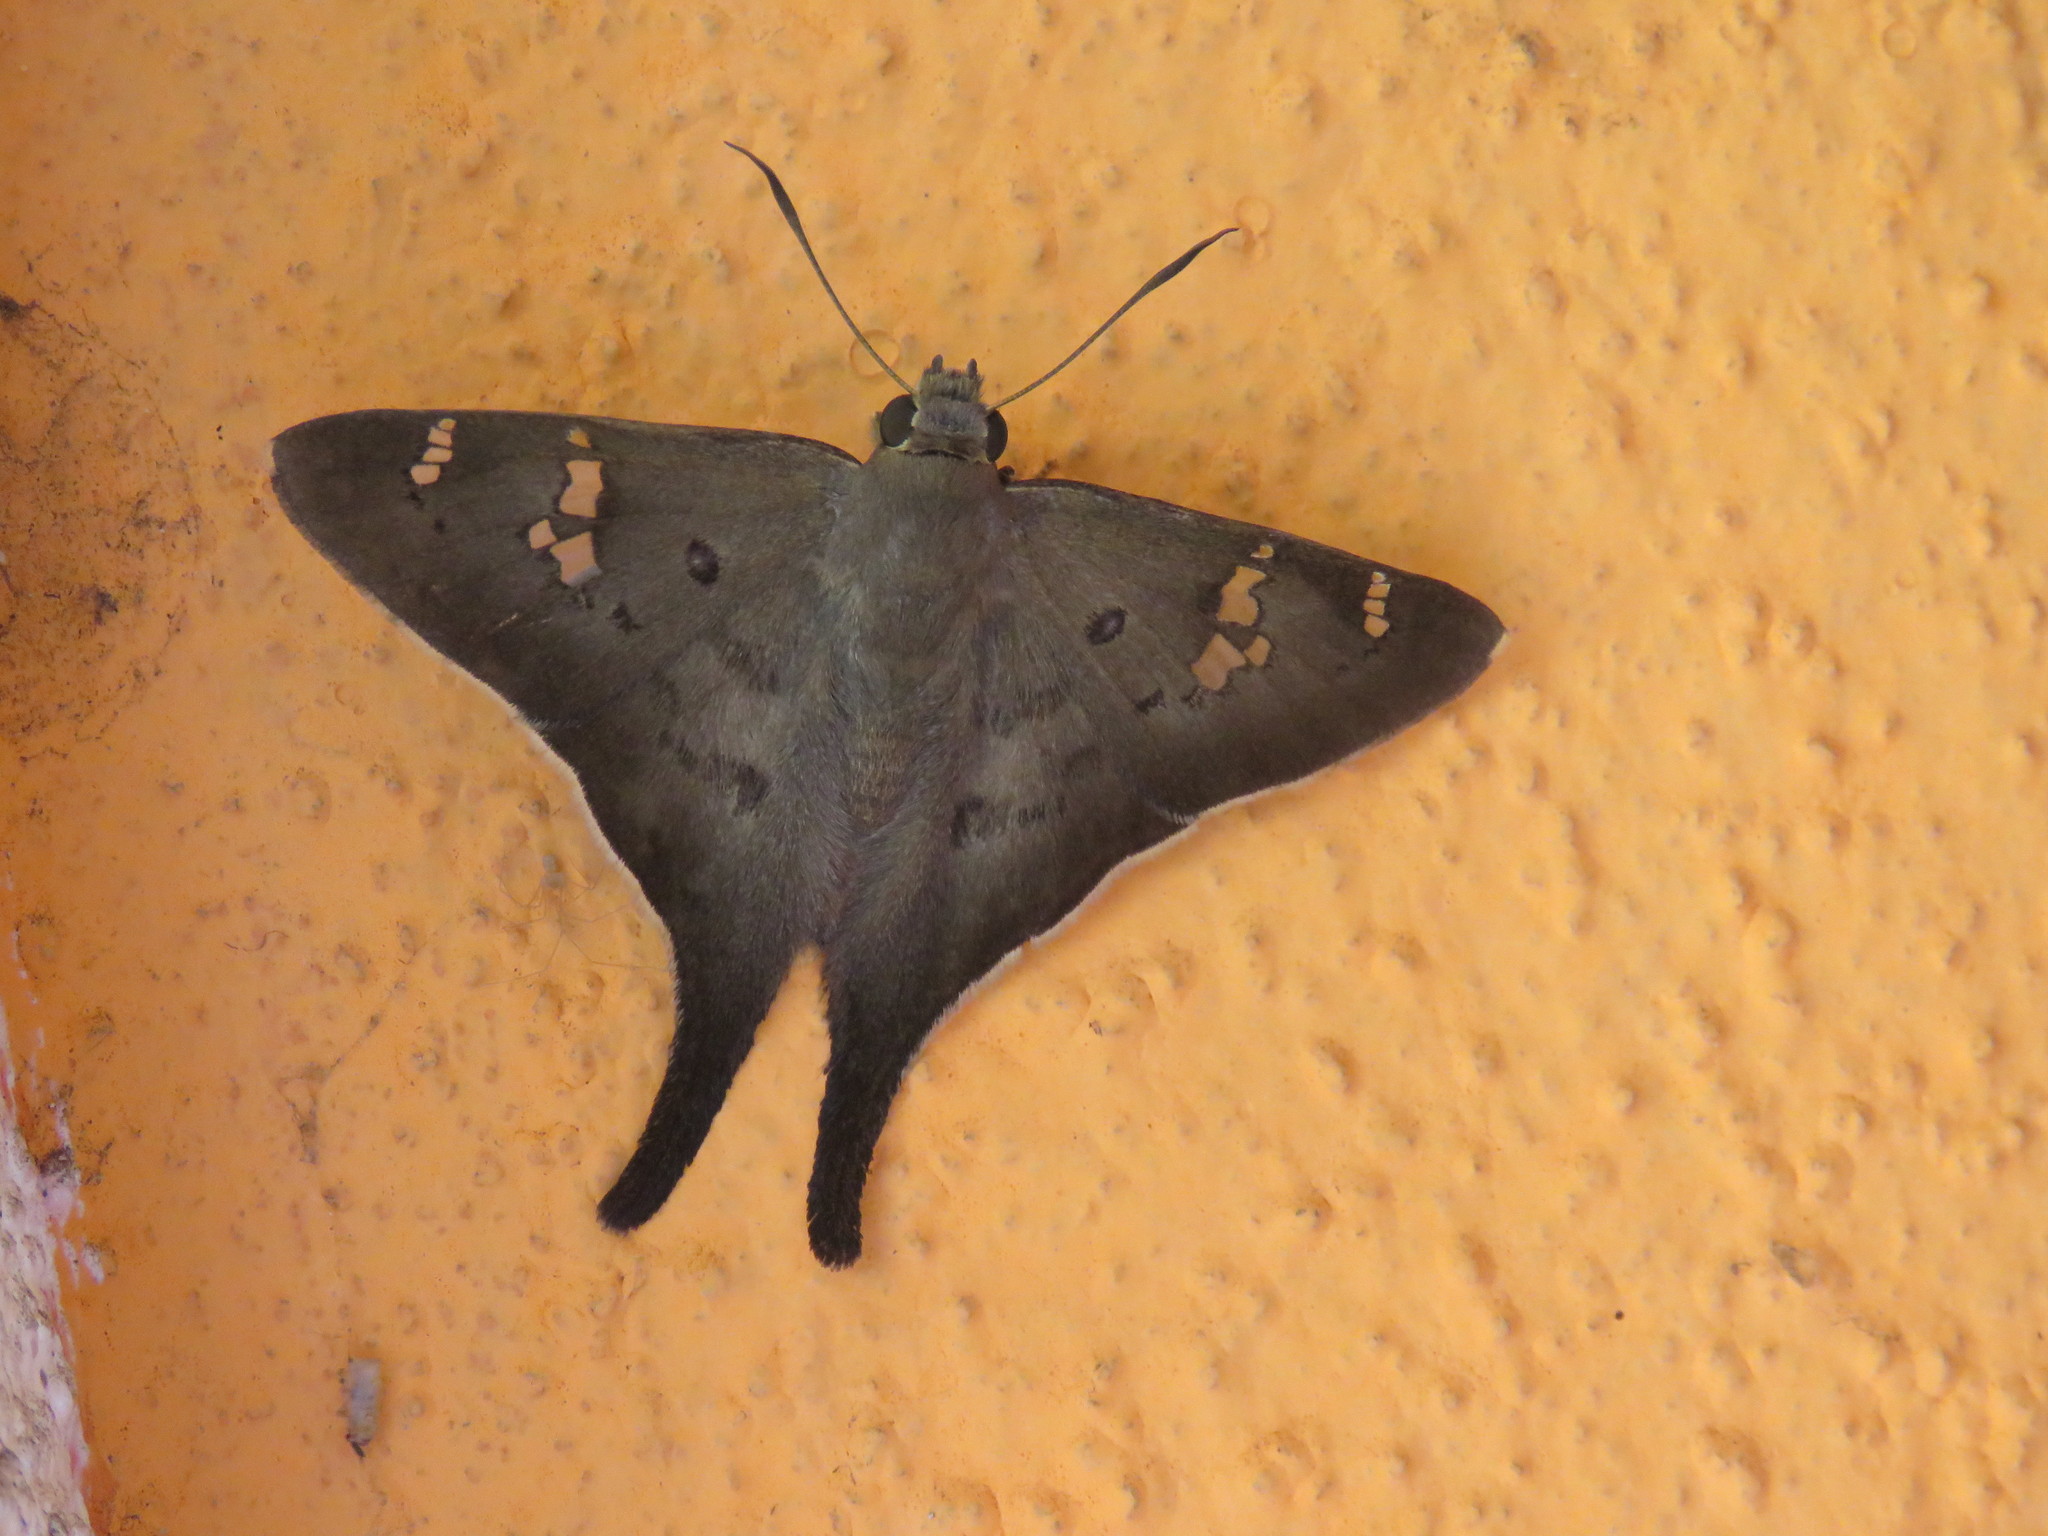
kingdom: Animalia
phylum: Arthropoda
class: Insecta
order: Lepidoptera
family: Hesperiidae
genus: Ectomis
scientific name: Ectomis
